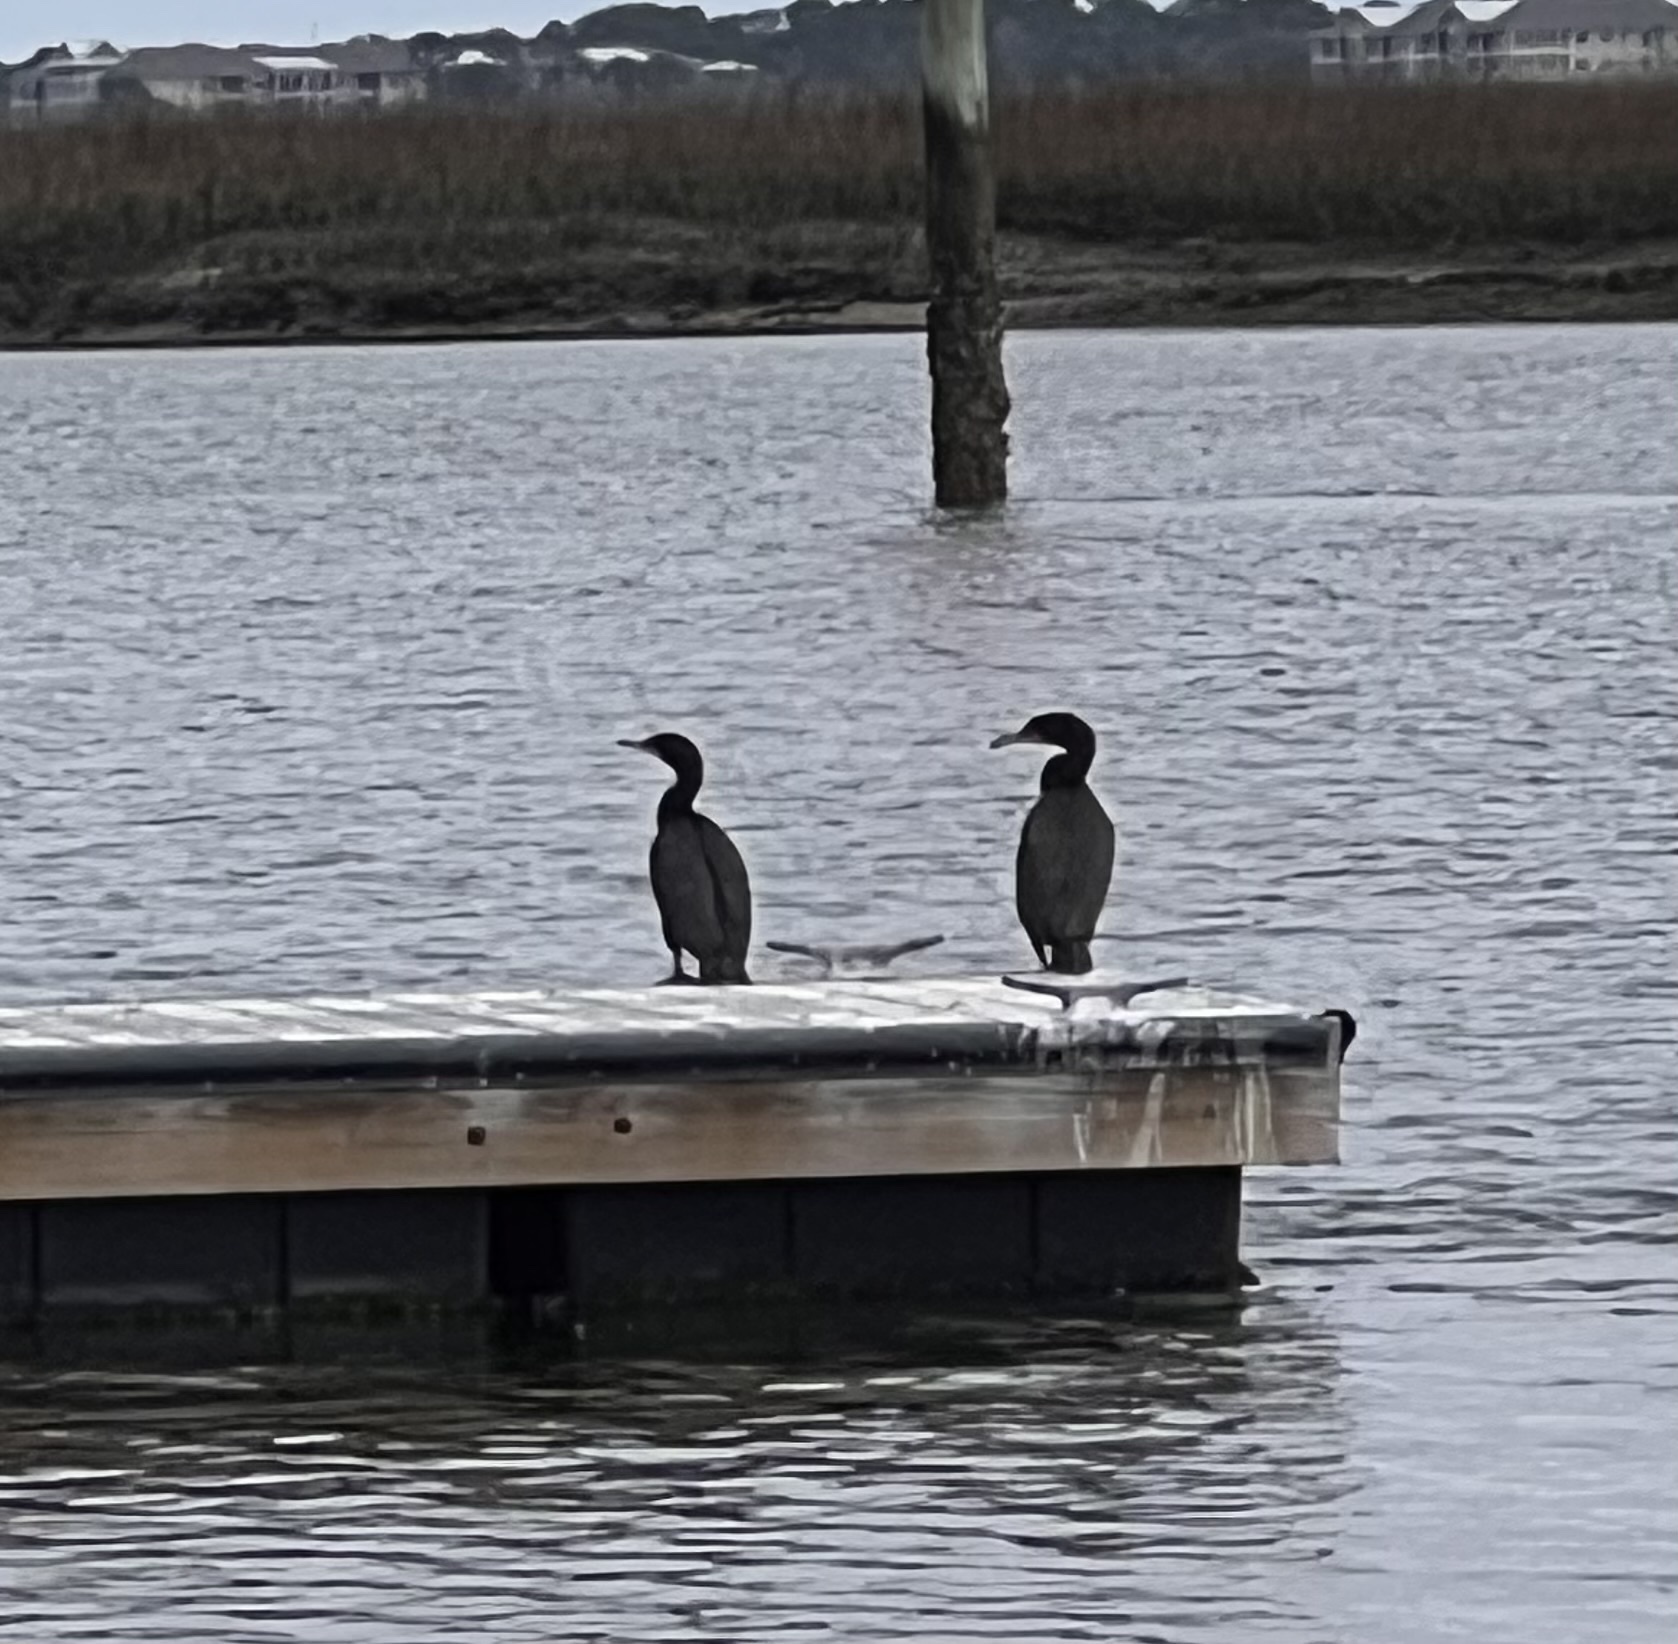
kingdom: Animalia
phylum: Chordata
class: Aves
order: Suliformes
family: Phalacrocoracidae
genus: Phalacrocorax
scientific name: Phalacrocorax auritus
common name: Double-crested cormorant
